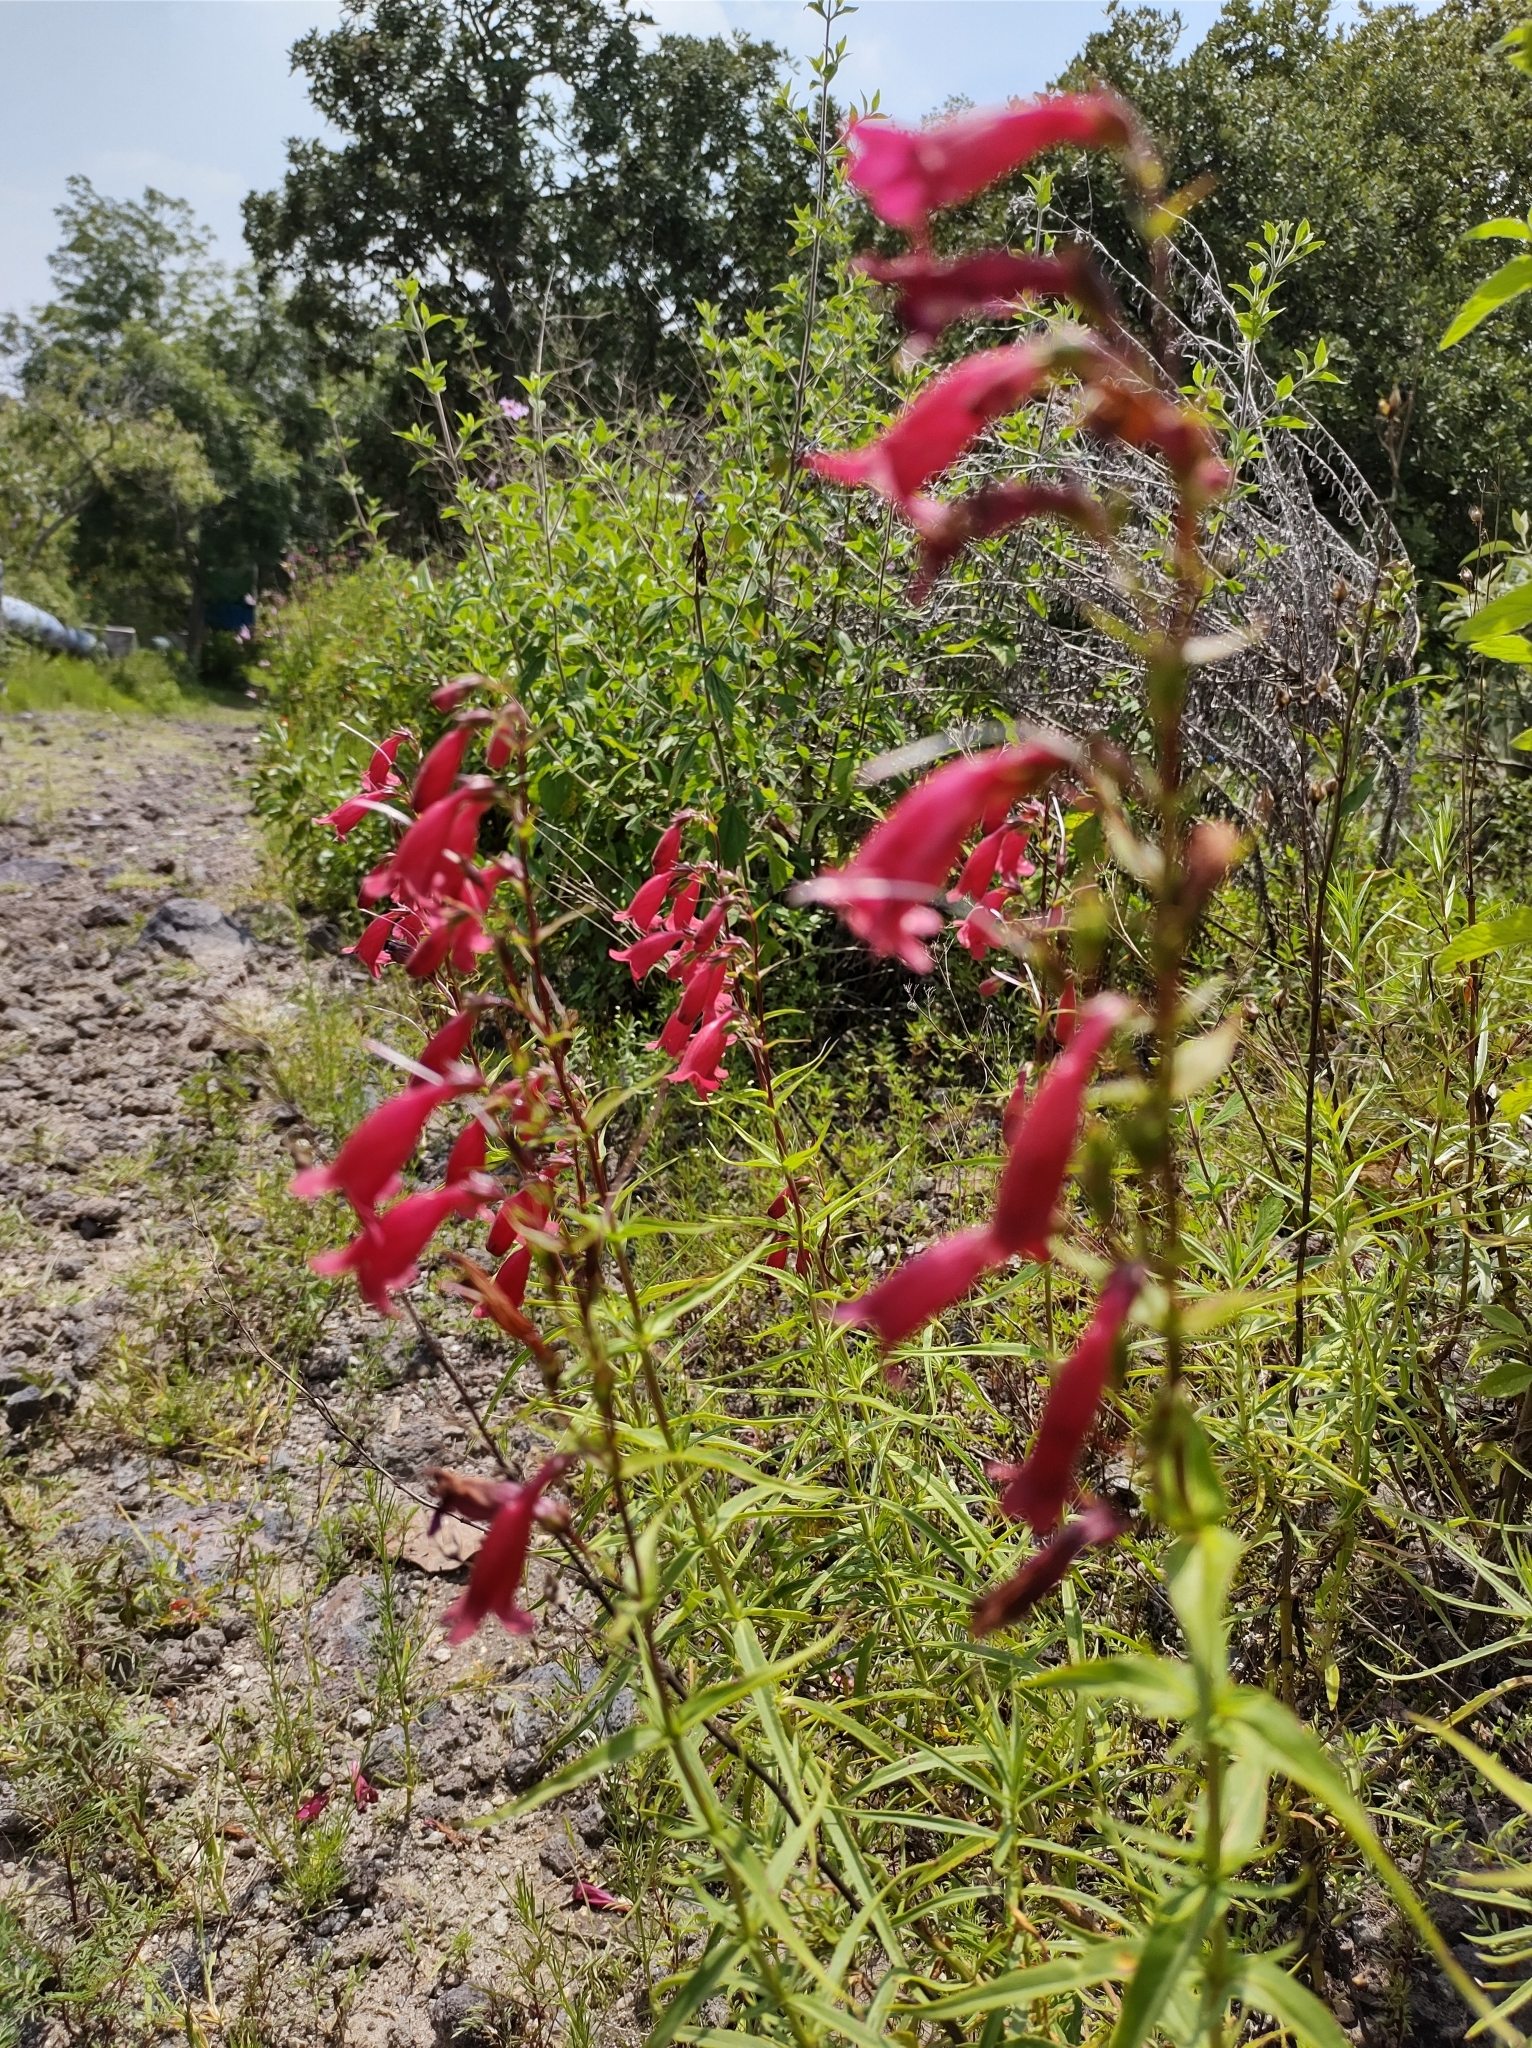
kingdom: Plantae
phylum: Tracheophyta
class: Magnoliopsida
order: Lamiales
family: Plantaginaceae
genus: Penstemon
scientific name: Penstemon roseus
